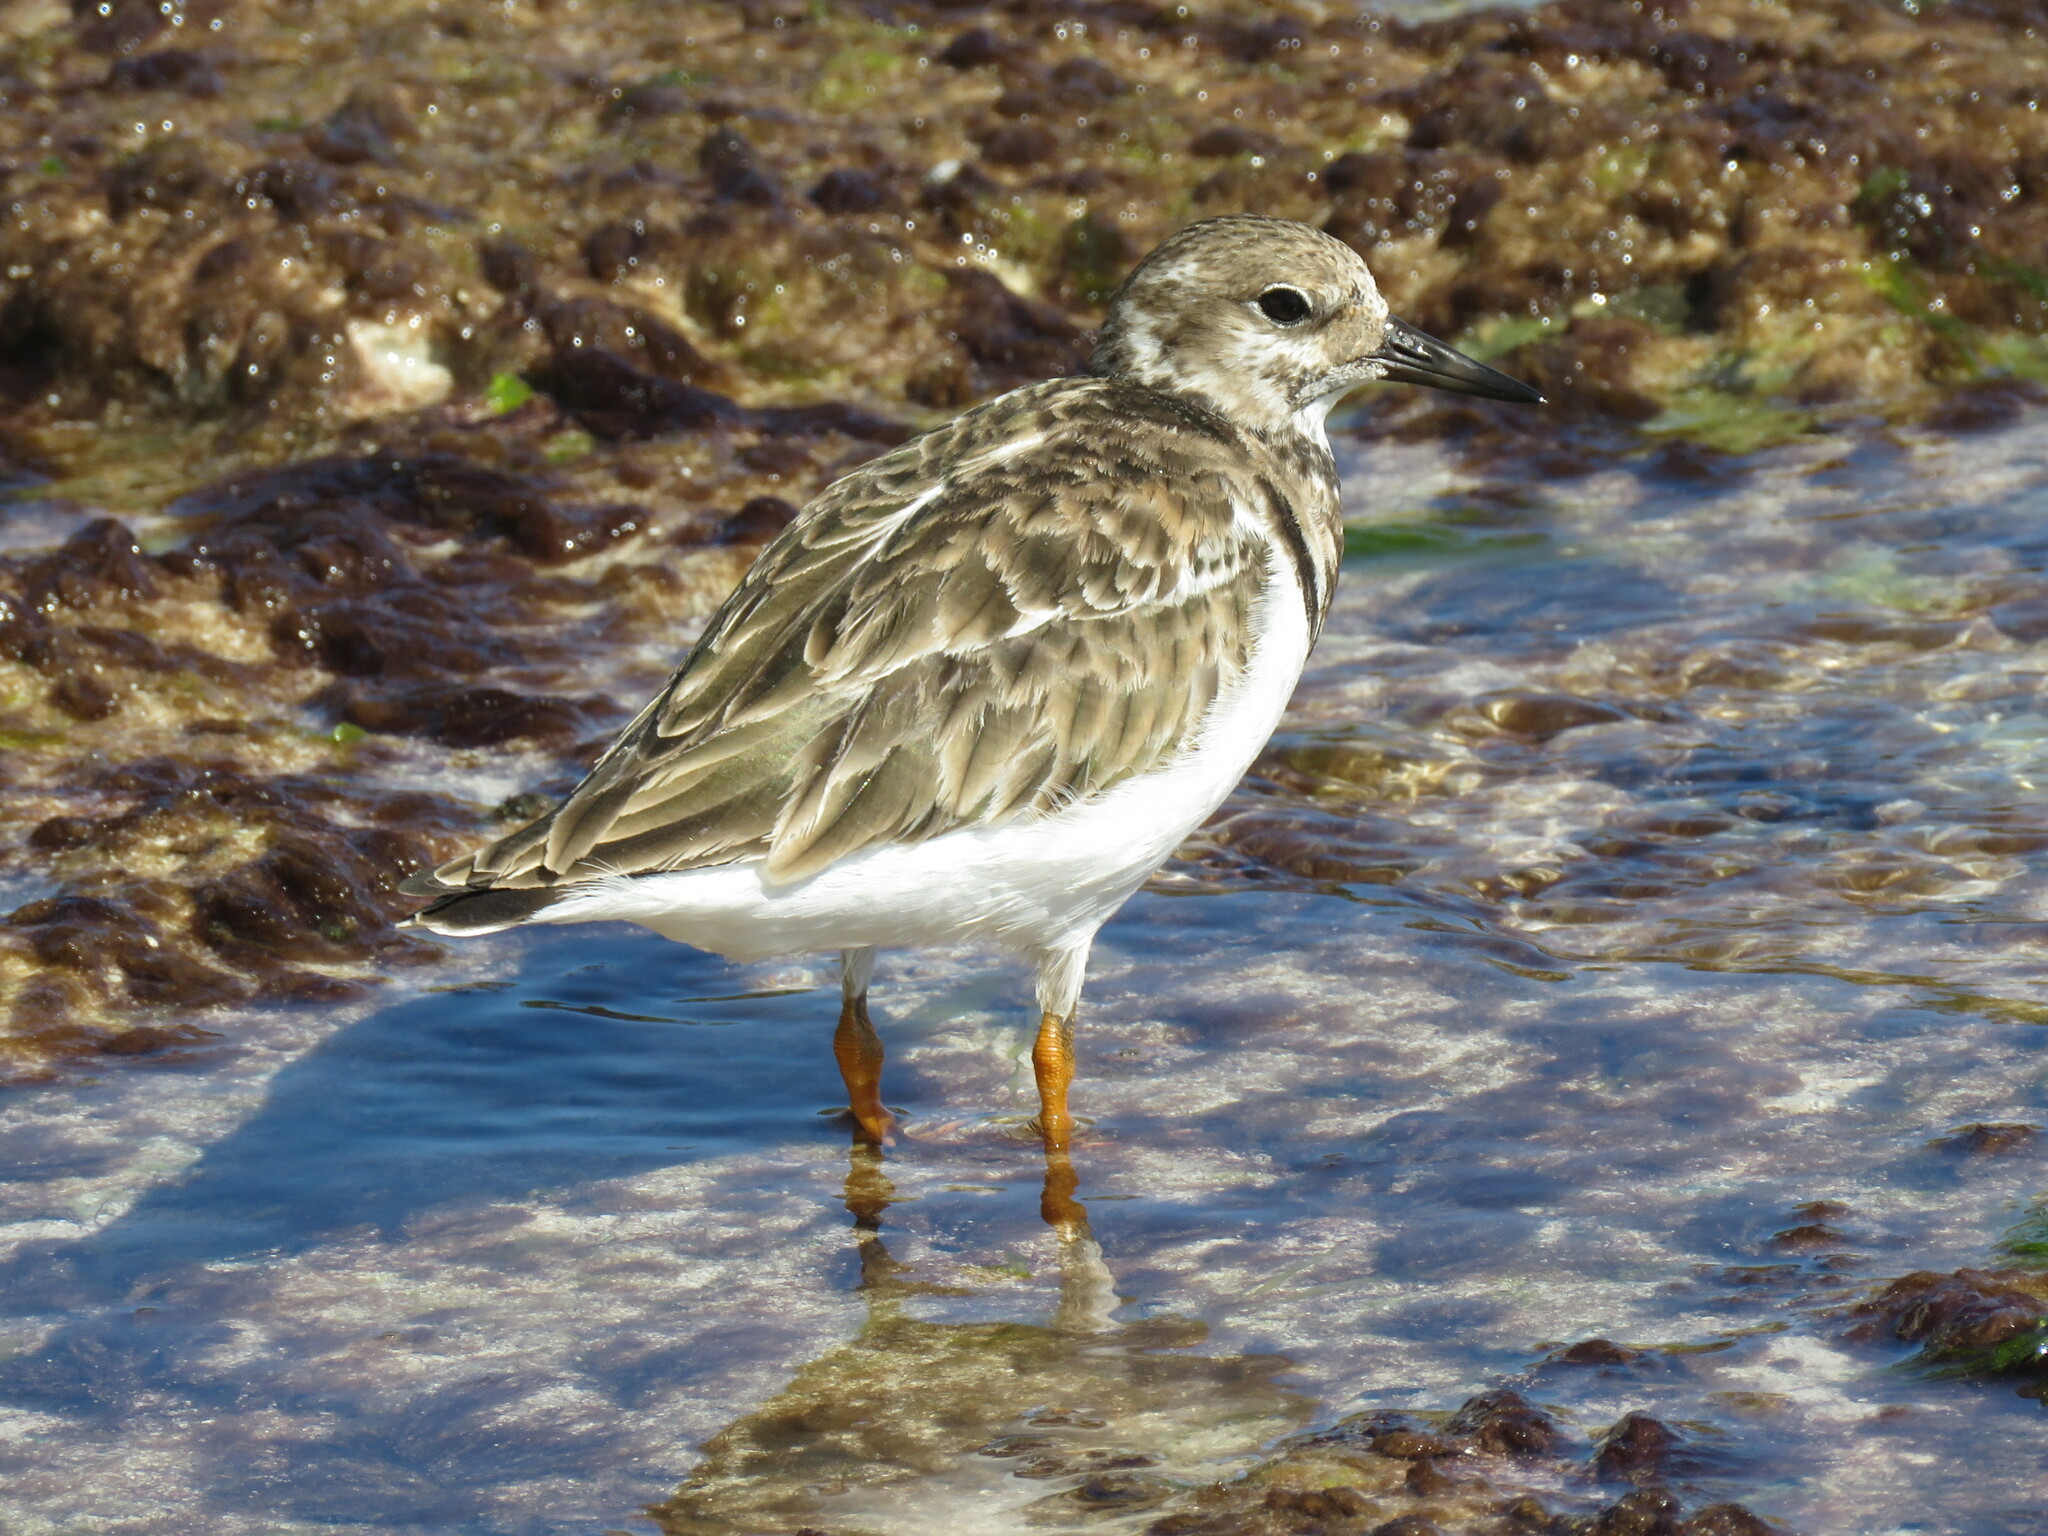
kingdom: Animalia
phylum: Chordata
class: Aves
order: Charadriiformes
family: Scolopacidae
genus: Arenaria
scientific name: Arenaria interpres
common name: Ruddy turnstone
